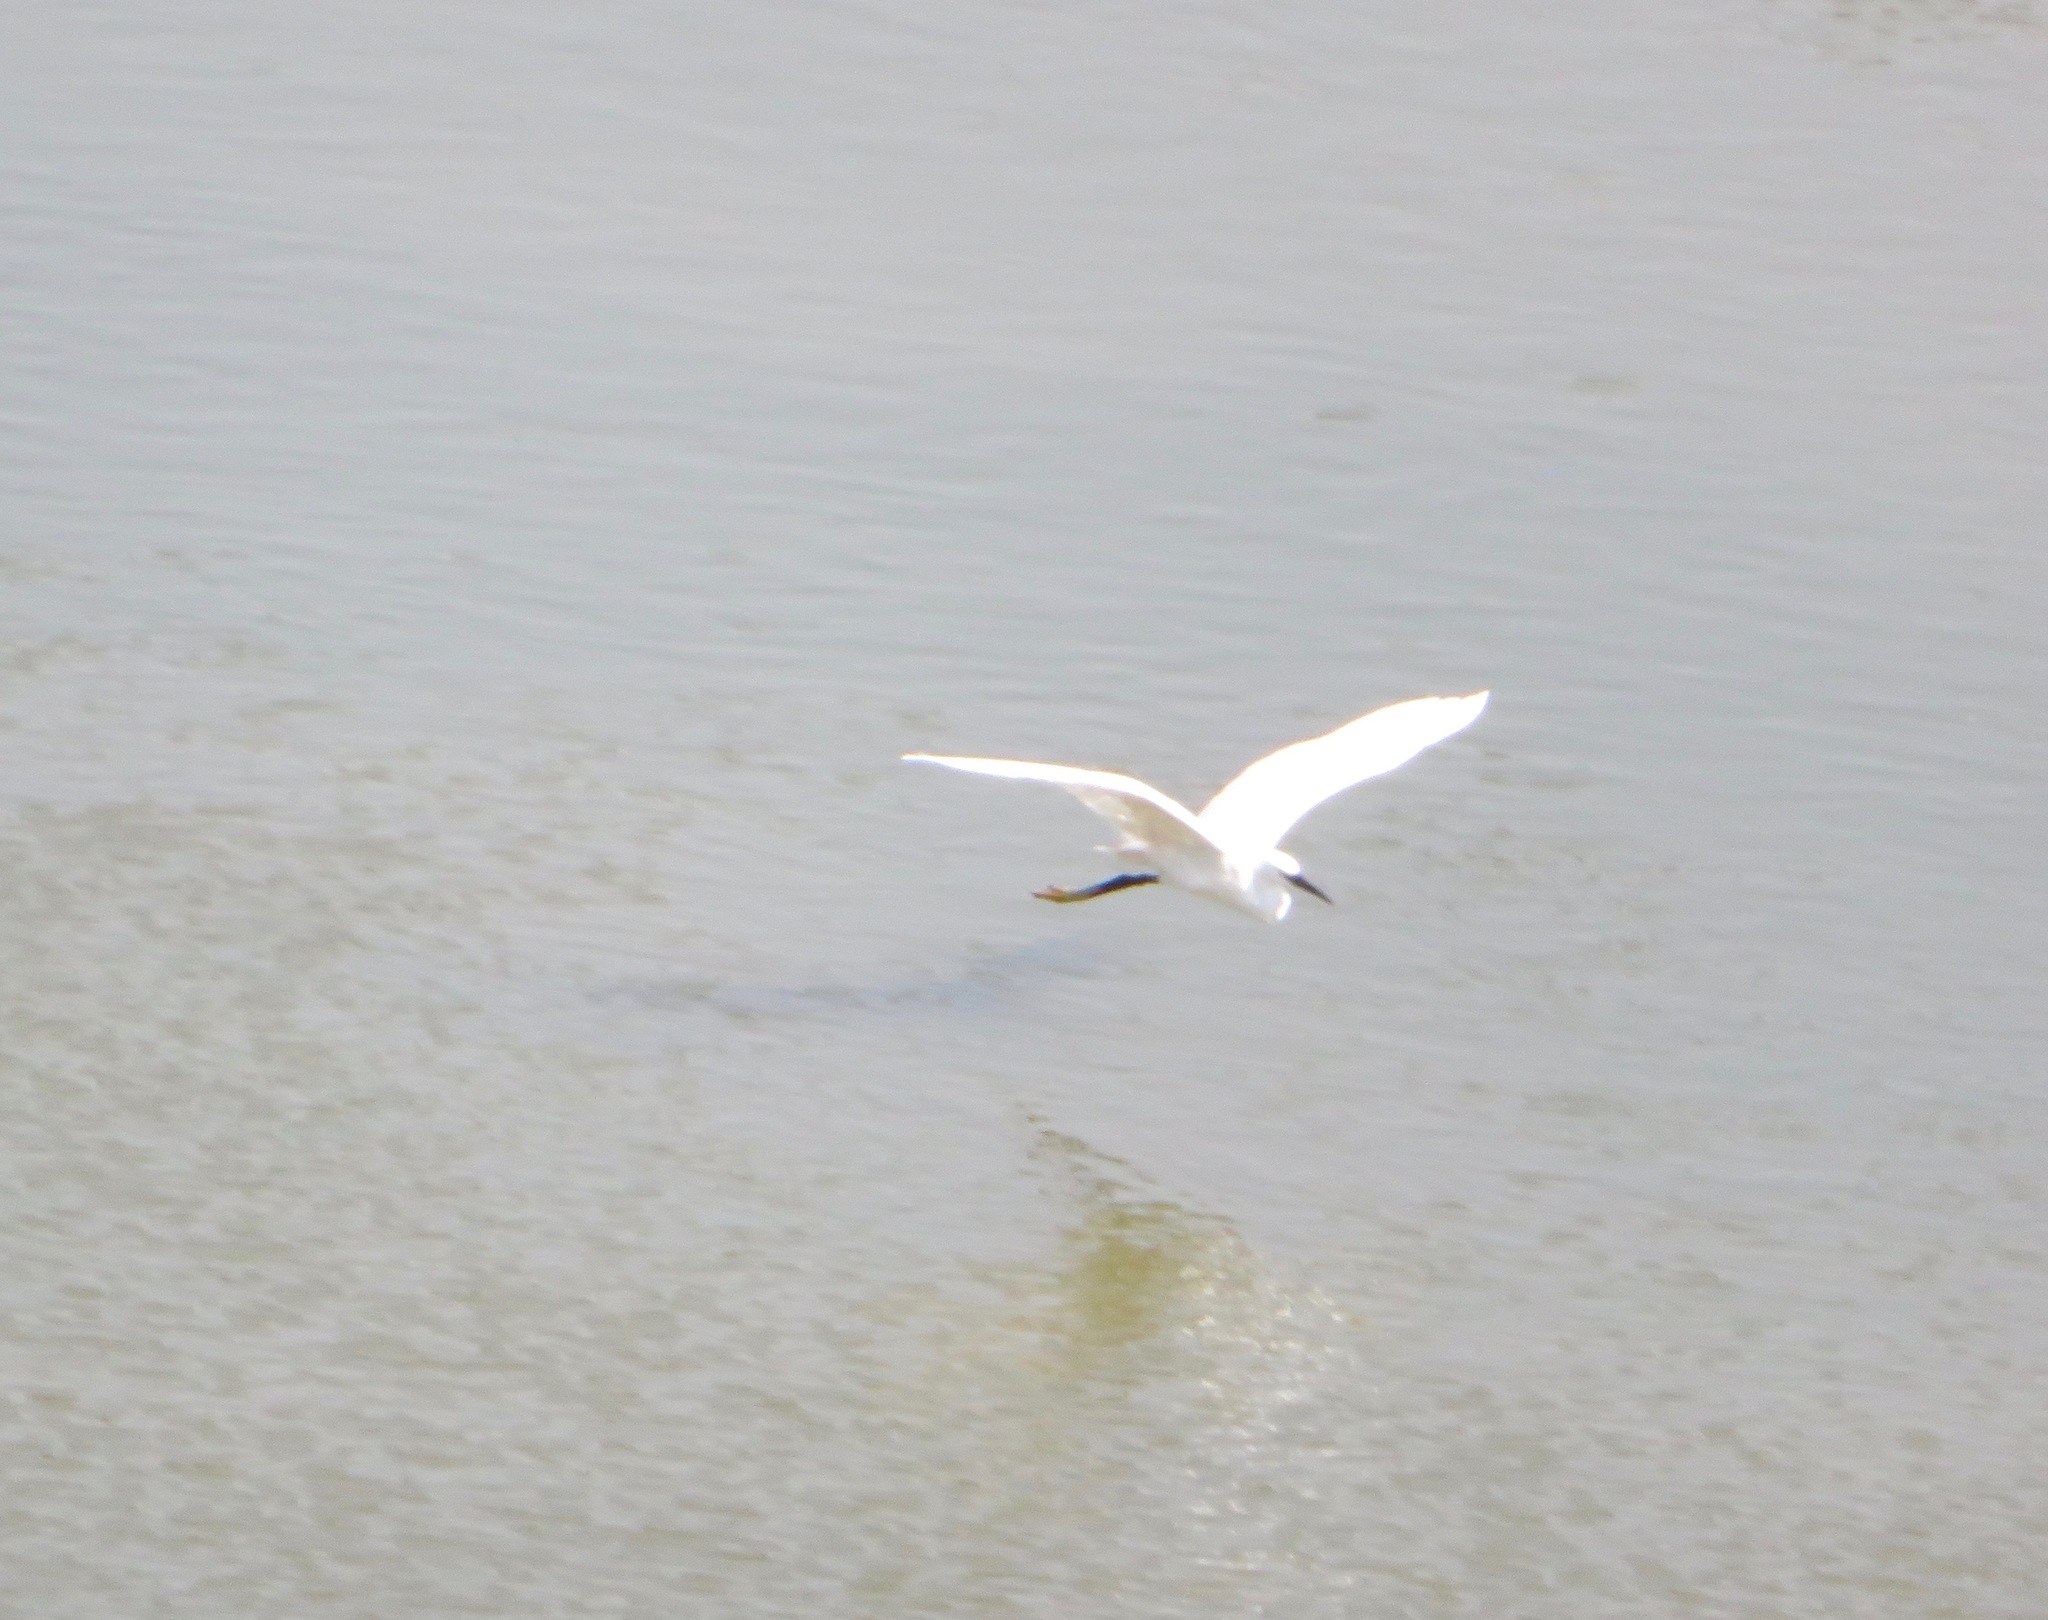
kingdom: Animalia
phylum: Chordata
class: Aves
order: Pelecaniformes
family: Ardeidae
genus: Egretta
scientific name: Egretta garzetta
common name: Little egret
